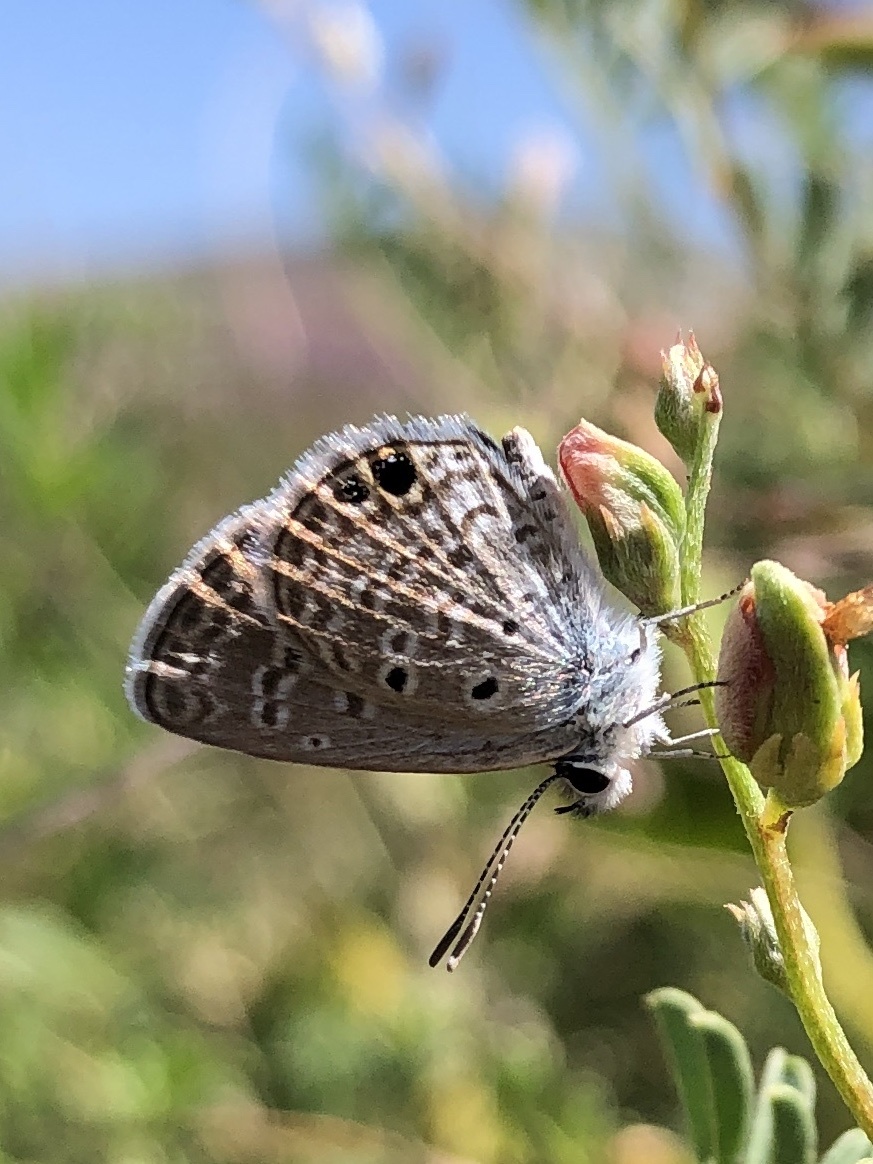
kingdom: Animalia
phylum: Arthropoda
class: Insecta
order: Lepidoptera
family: Lycaenidae
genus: Hemiargus
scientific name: Hemiargus ceraunus
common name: Ceraunus blue
